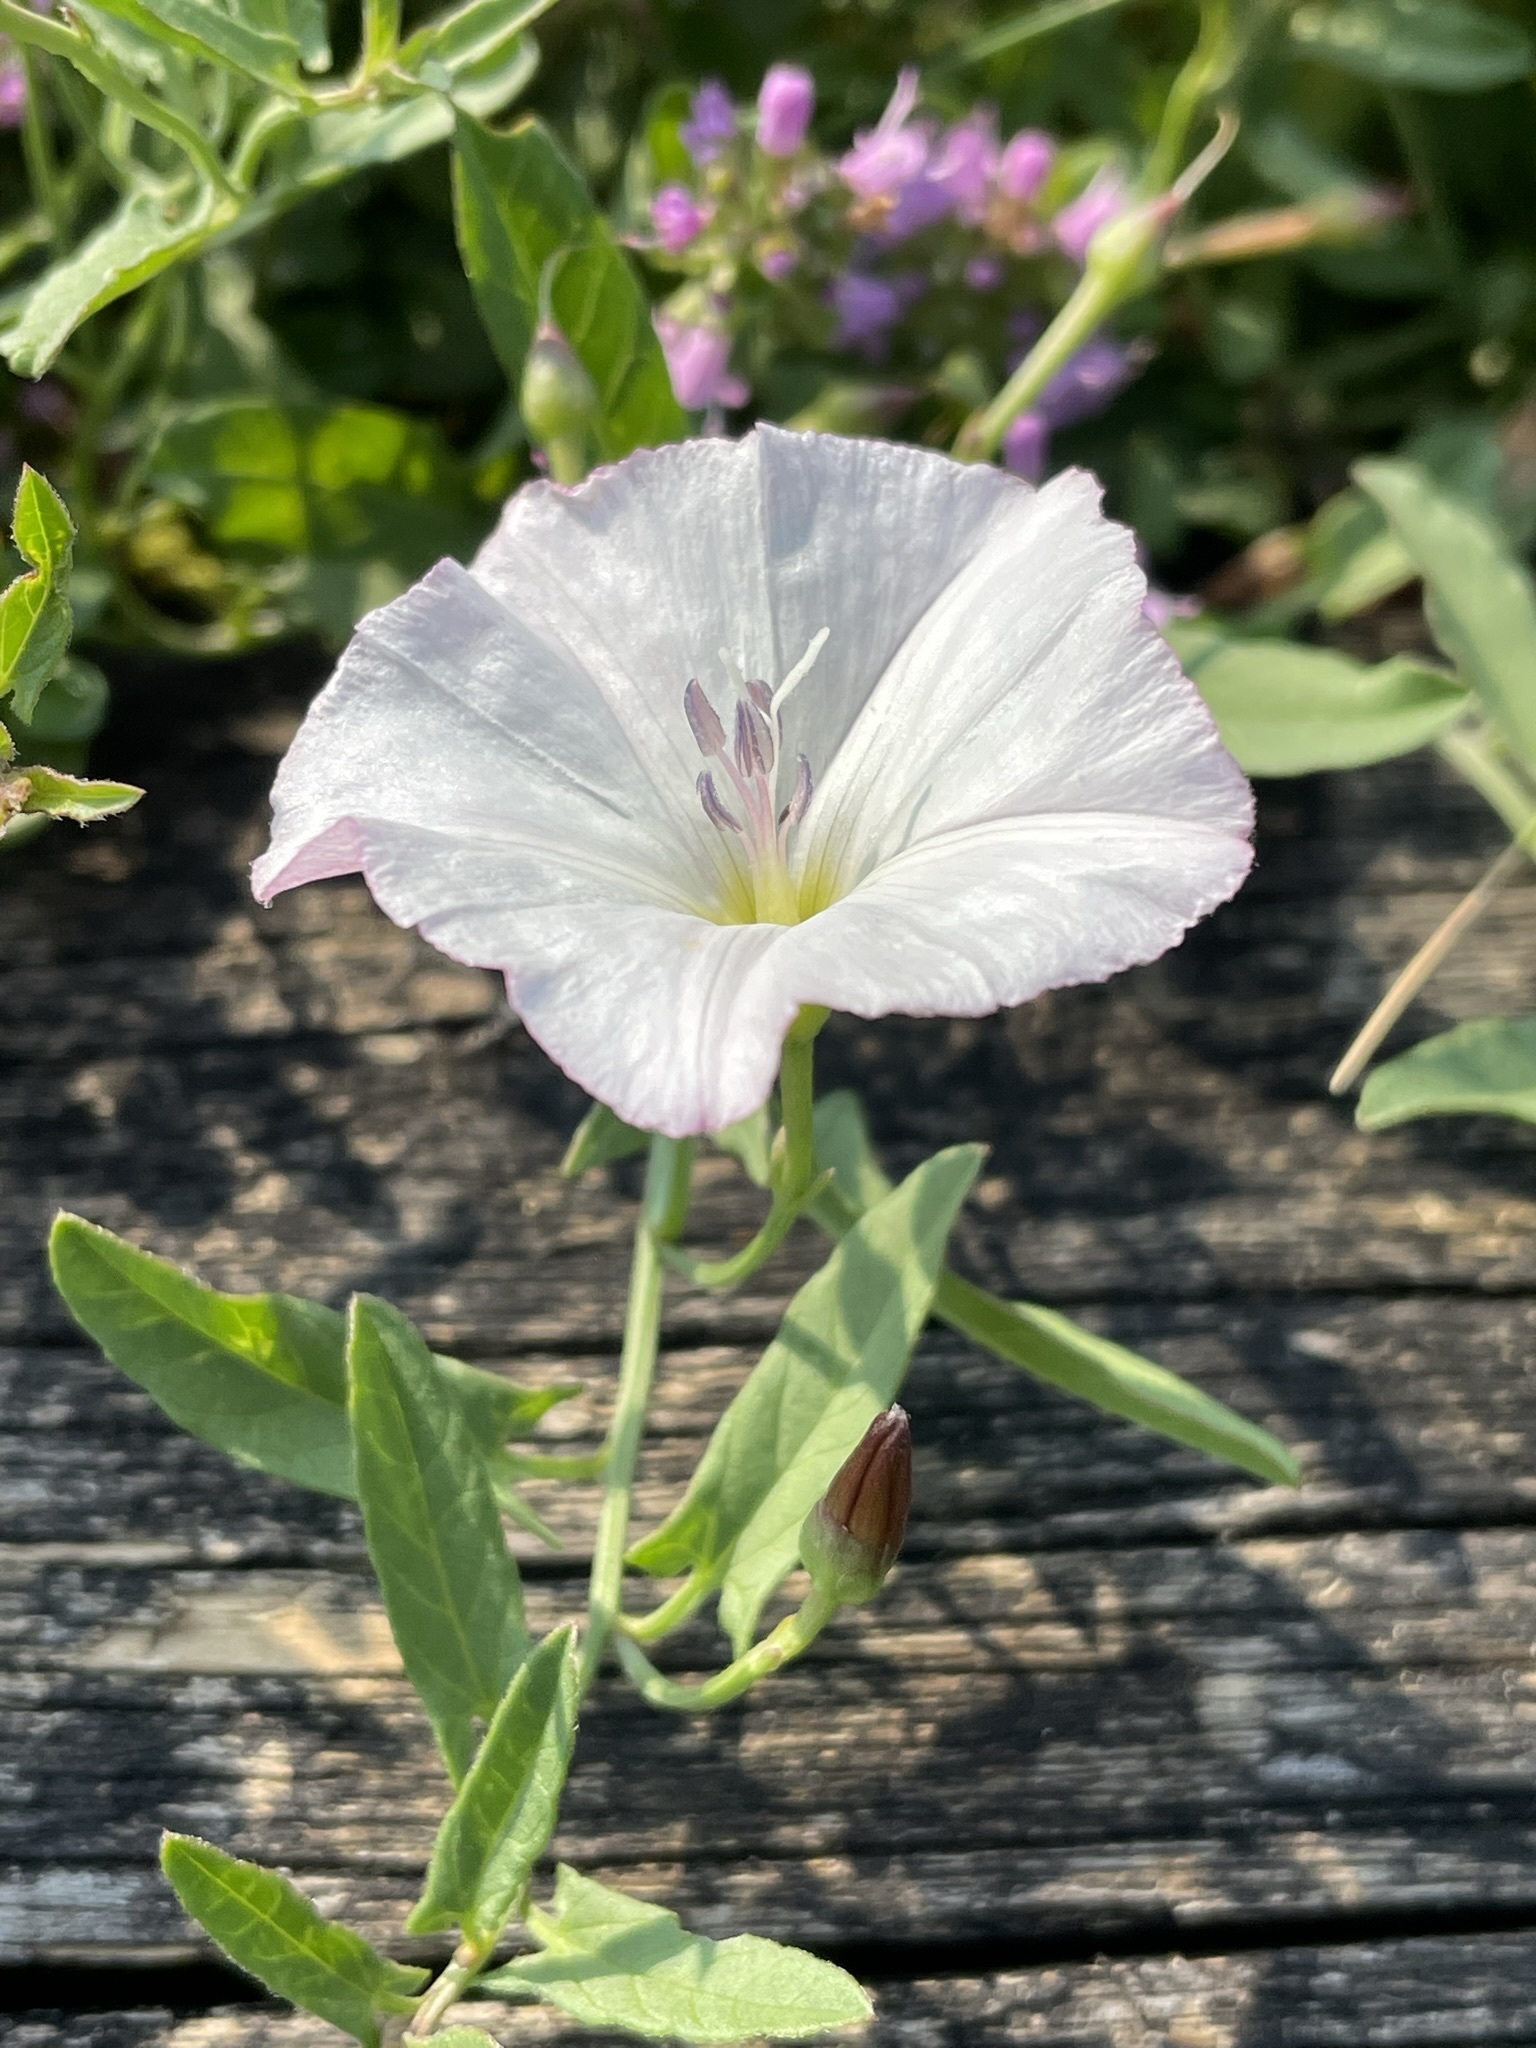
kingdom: Plantae
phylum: Tracheophyta
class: Magnoliopsida
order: Solanales
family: Convolvulaceae
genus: Convolvulus
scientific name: Convolvulus arvensis
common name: Field bindweed
